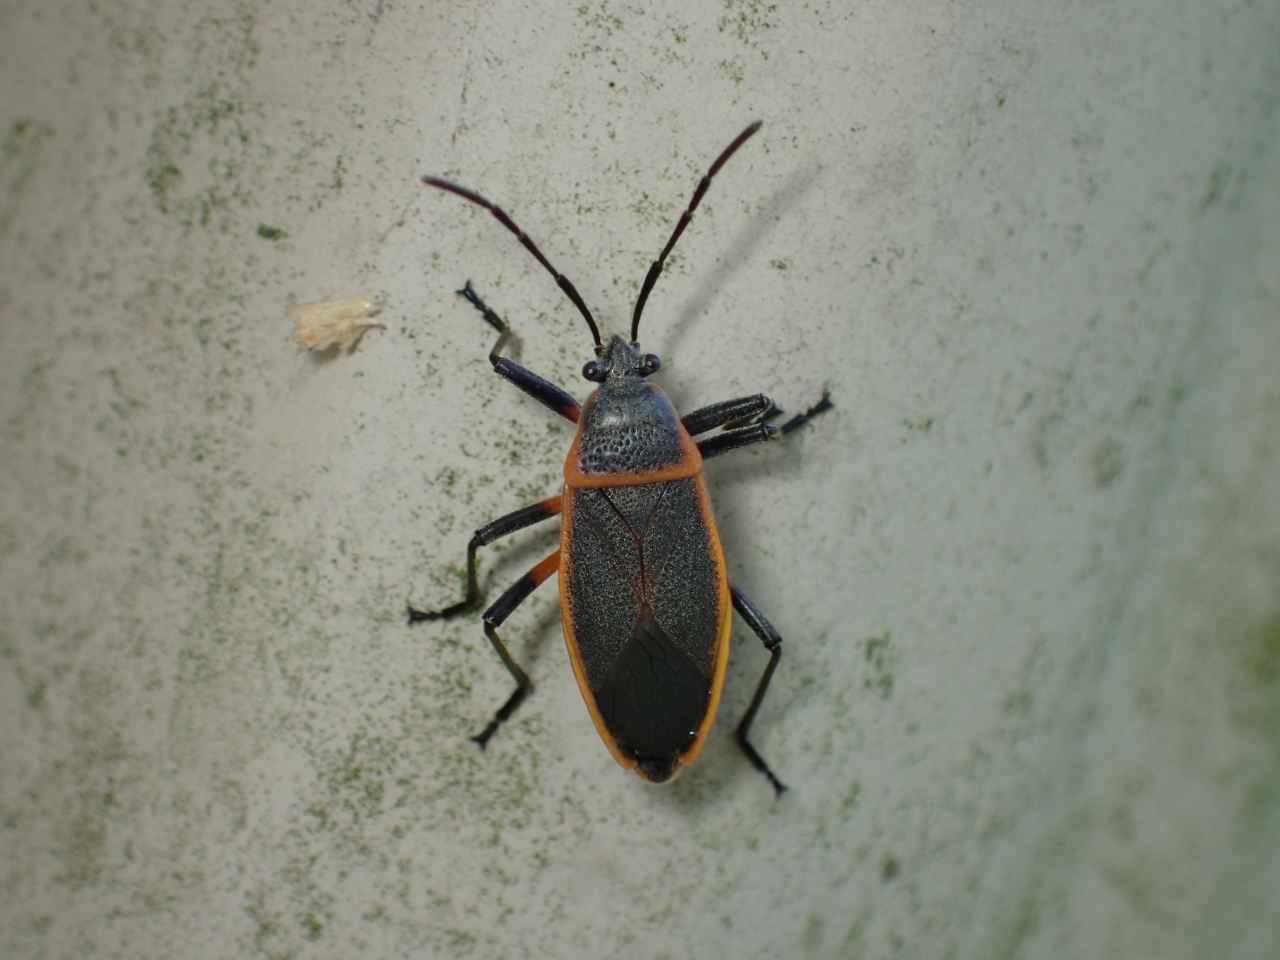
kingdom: Animalia
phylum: Arthropoda
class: Insecta
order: Hemiptera
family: Largidae
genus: Largus
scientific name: Largus succinctus
